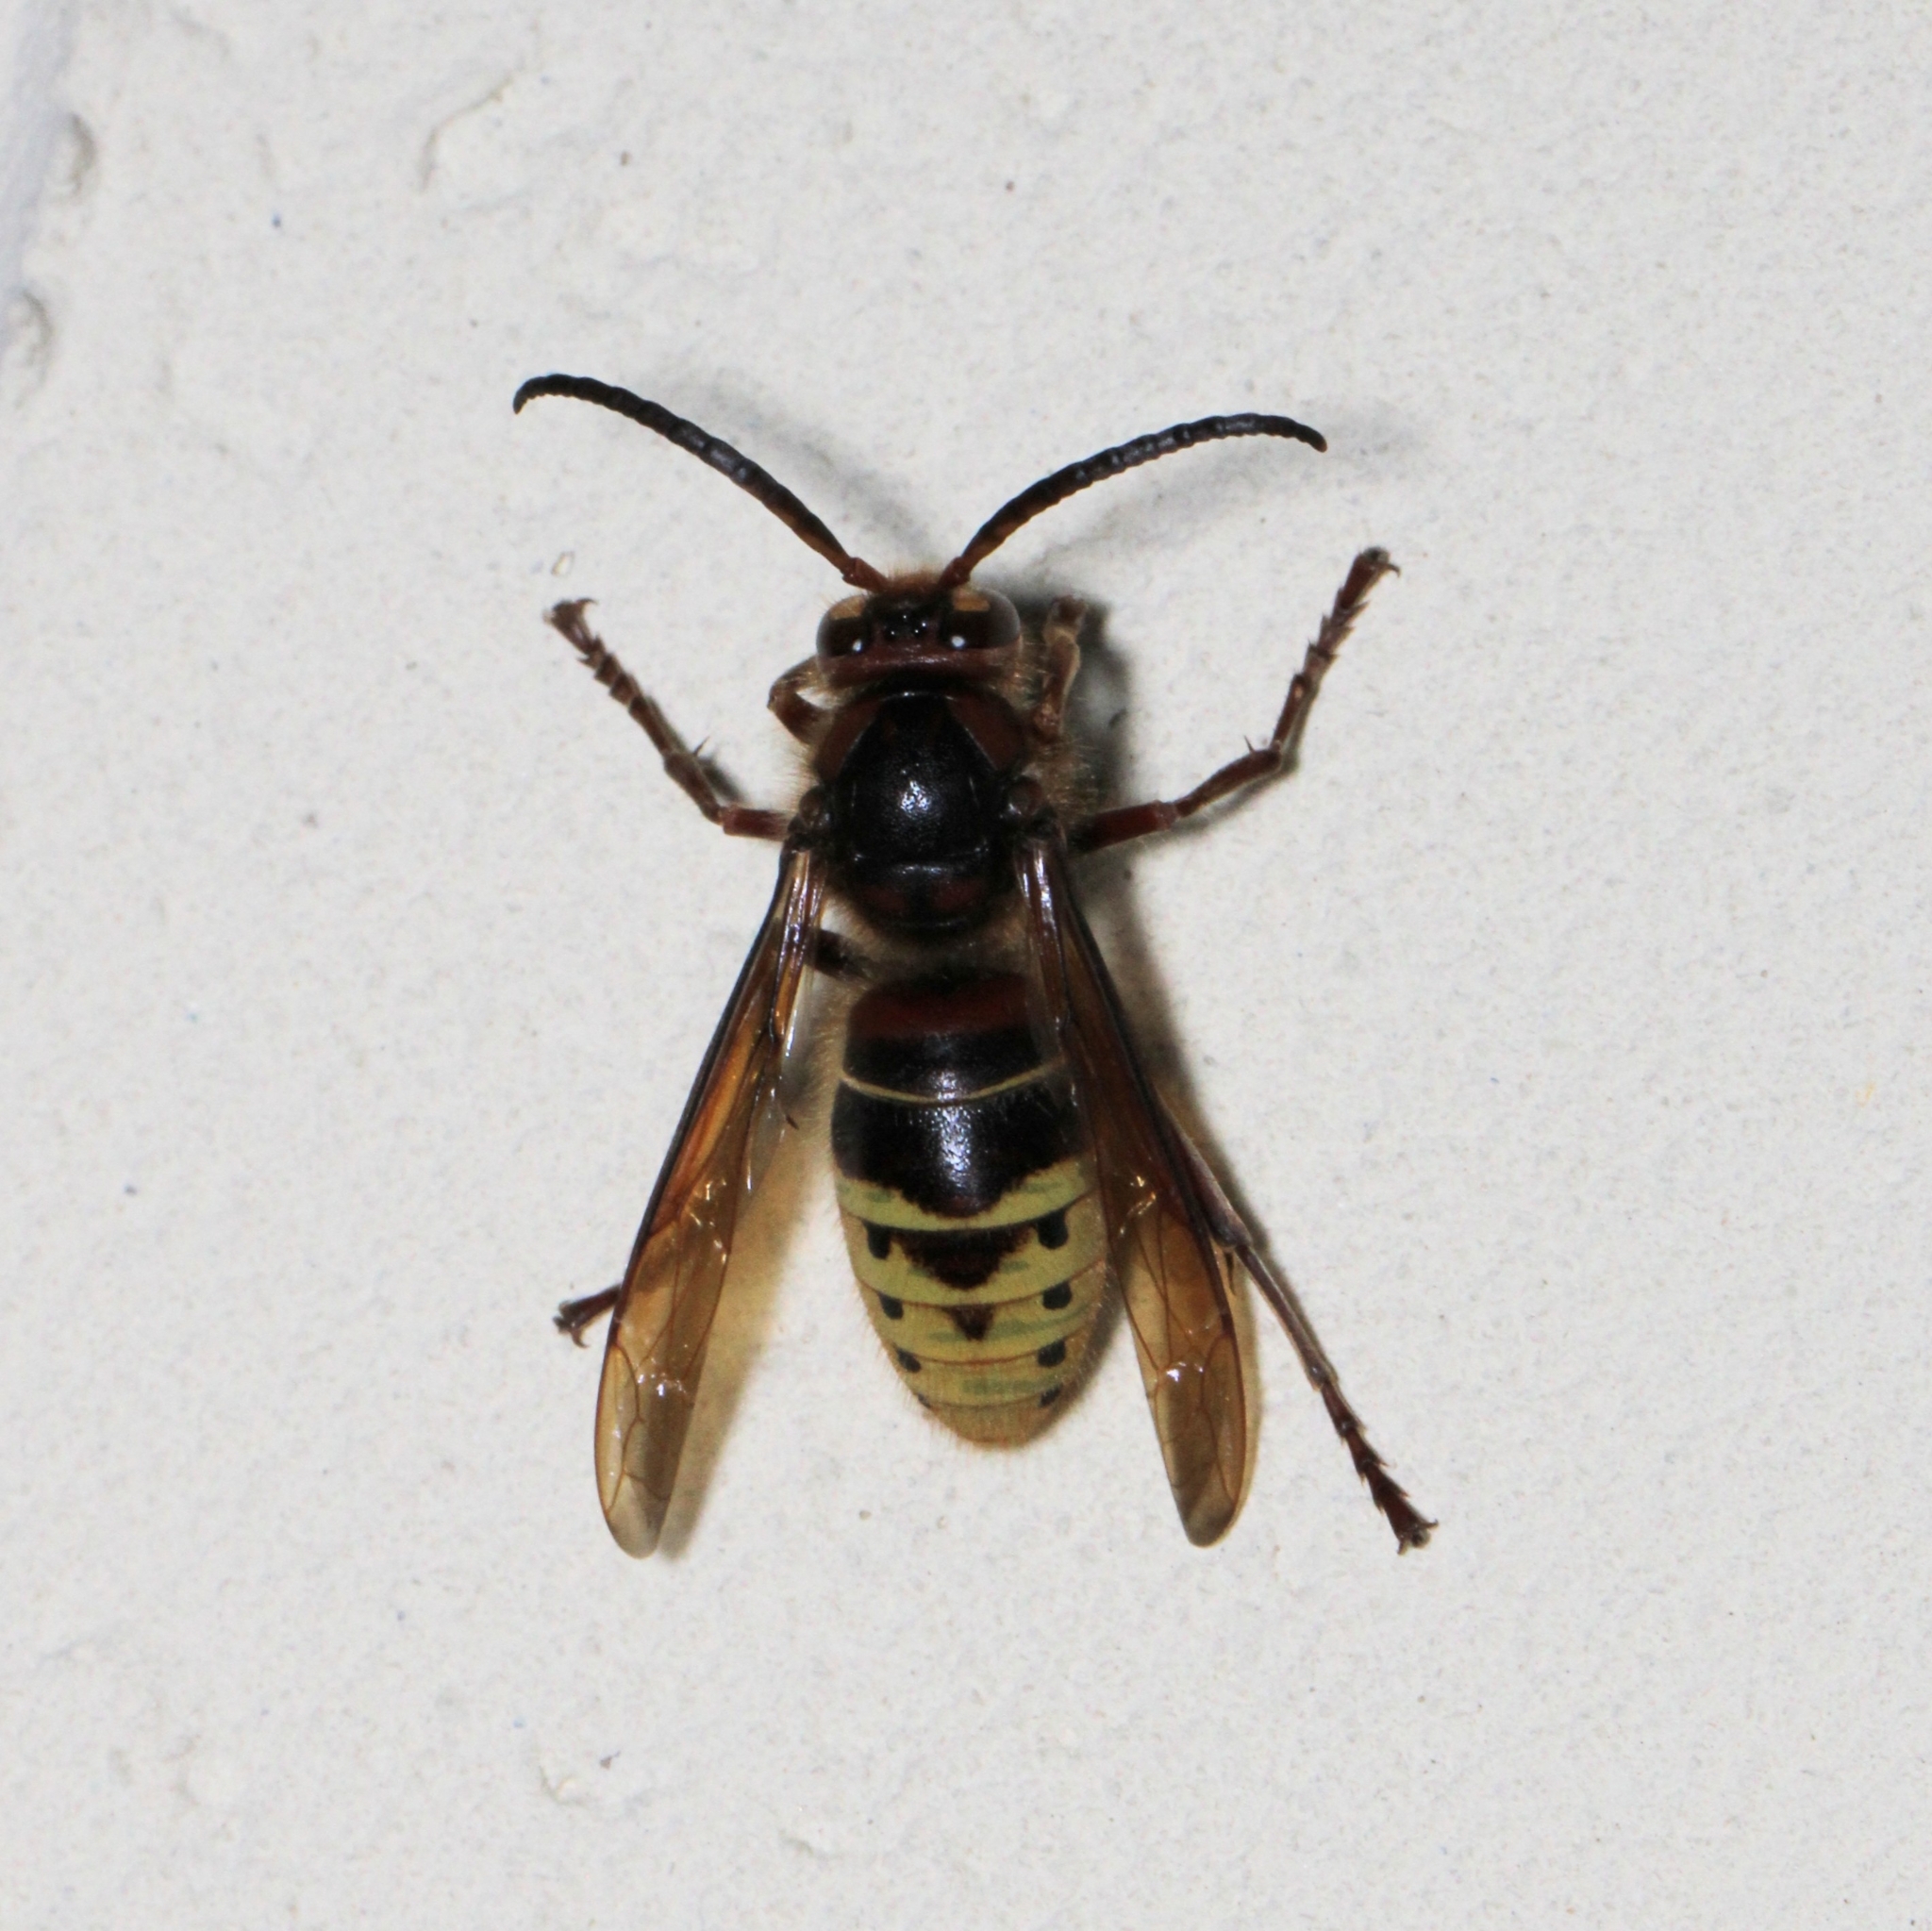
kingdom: Animalia
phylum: Arthropoda
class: Insecta
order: Hymenoptera
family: Vespidae
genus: Vespa
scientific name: Vespa crabro
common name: Hornet
